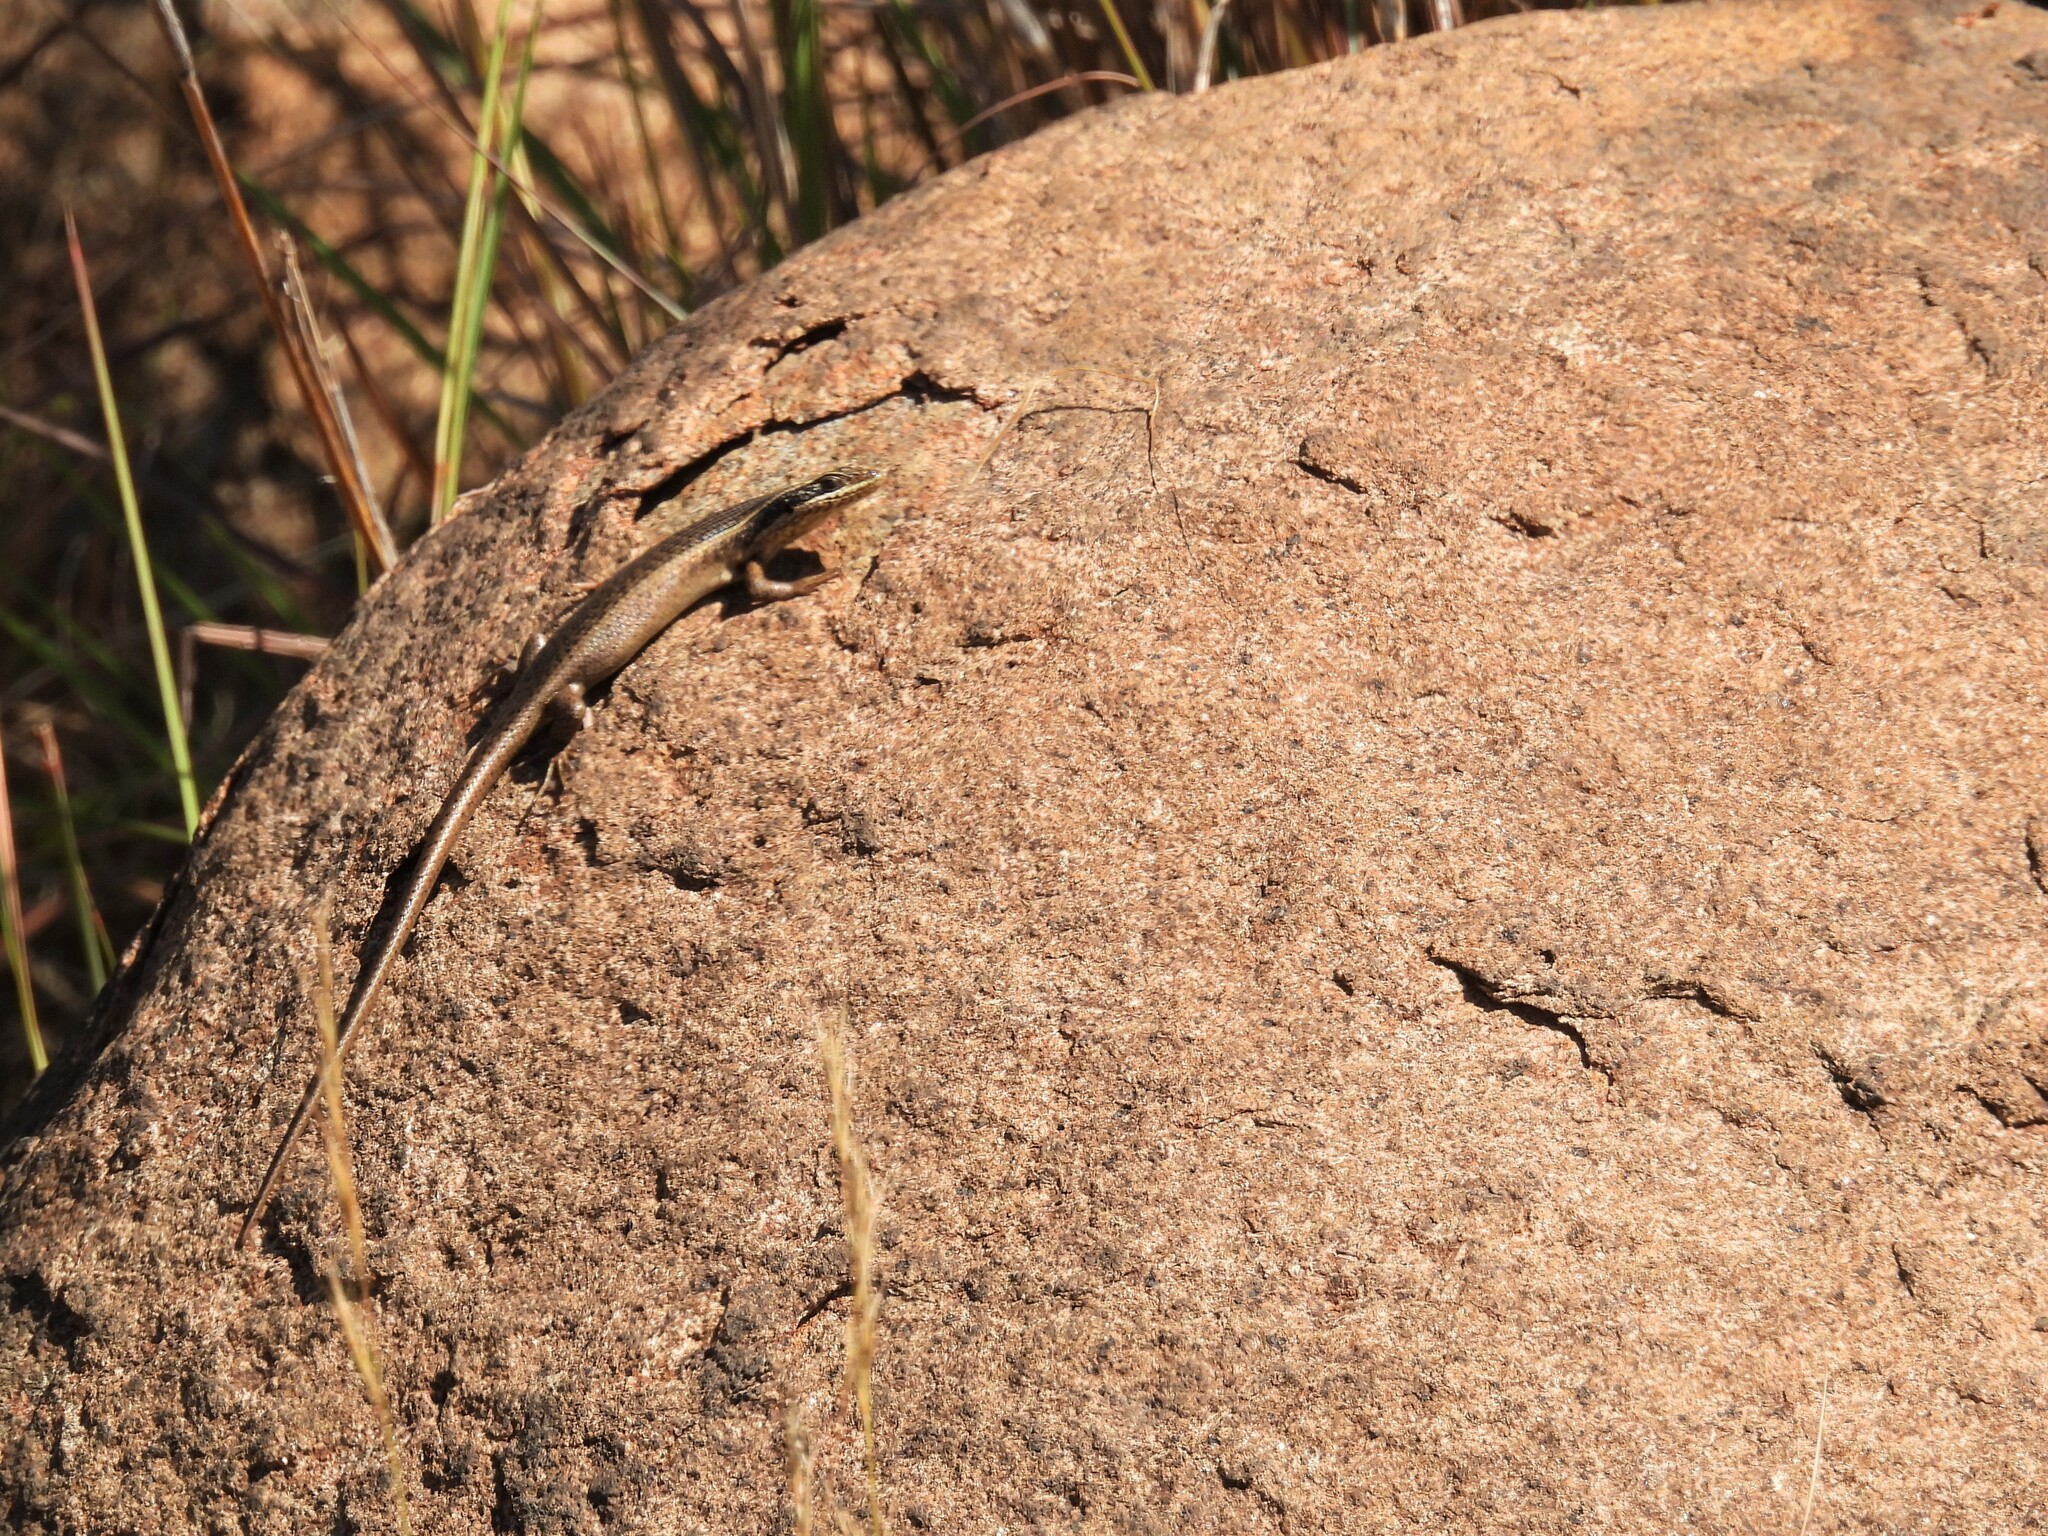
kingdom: Animalia
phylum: Chordata
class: Squamata
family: Scincidae
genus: Trachylepis
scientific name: Trachylepis punctatissima
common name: Montane speckled skink
